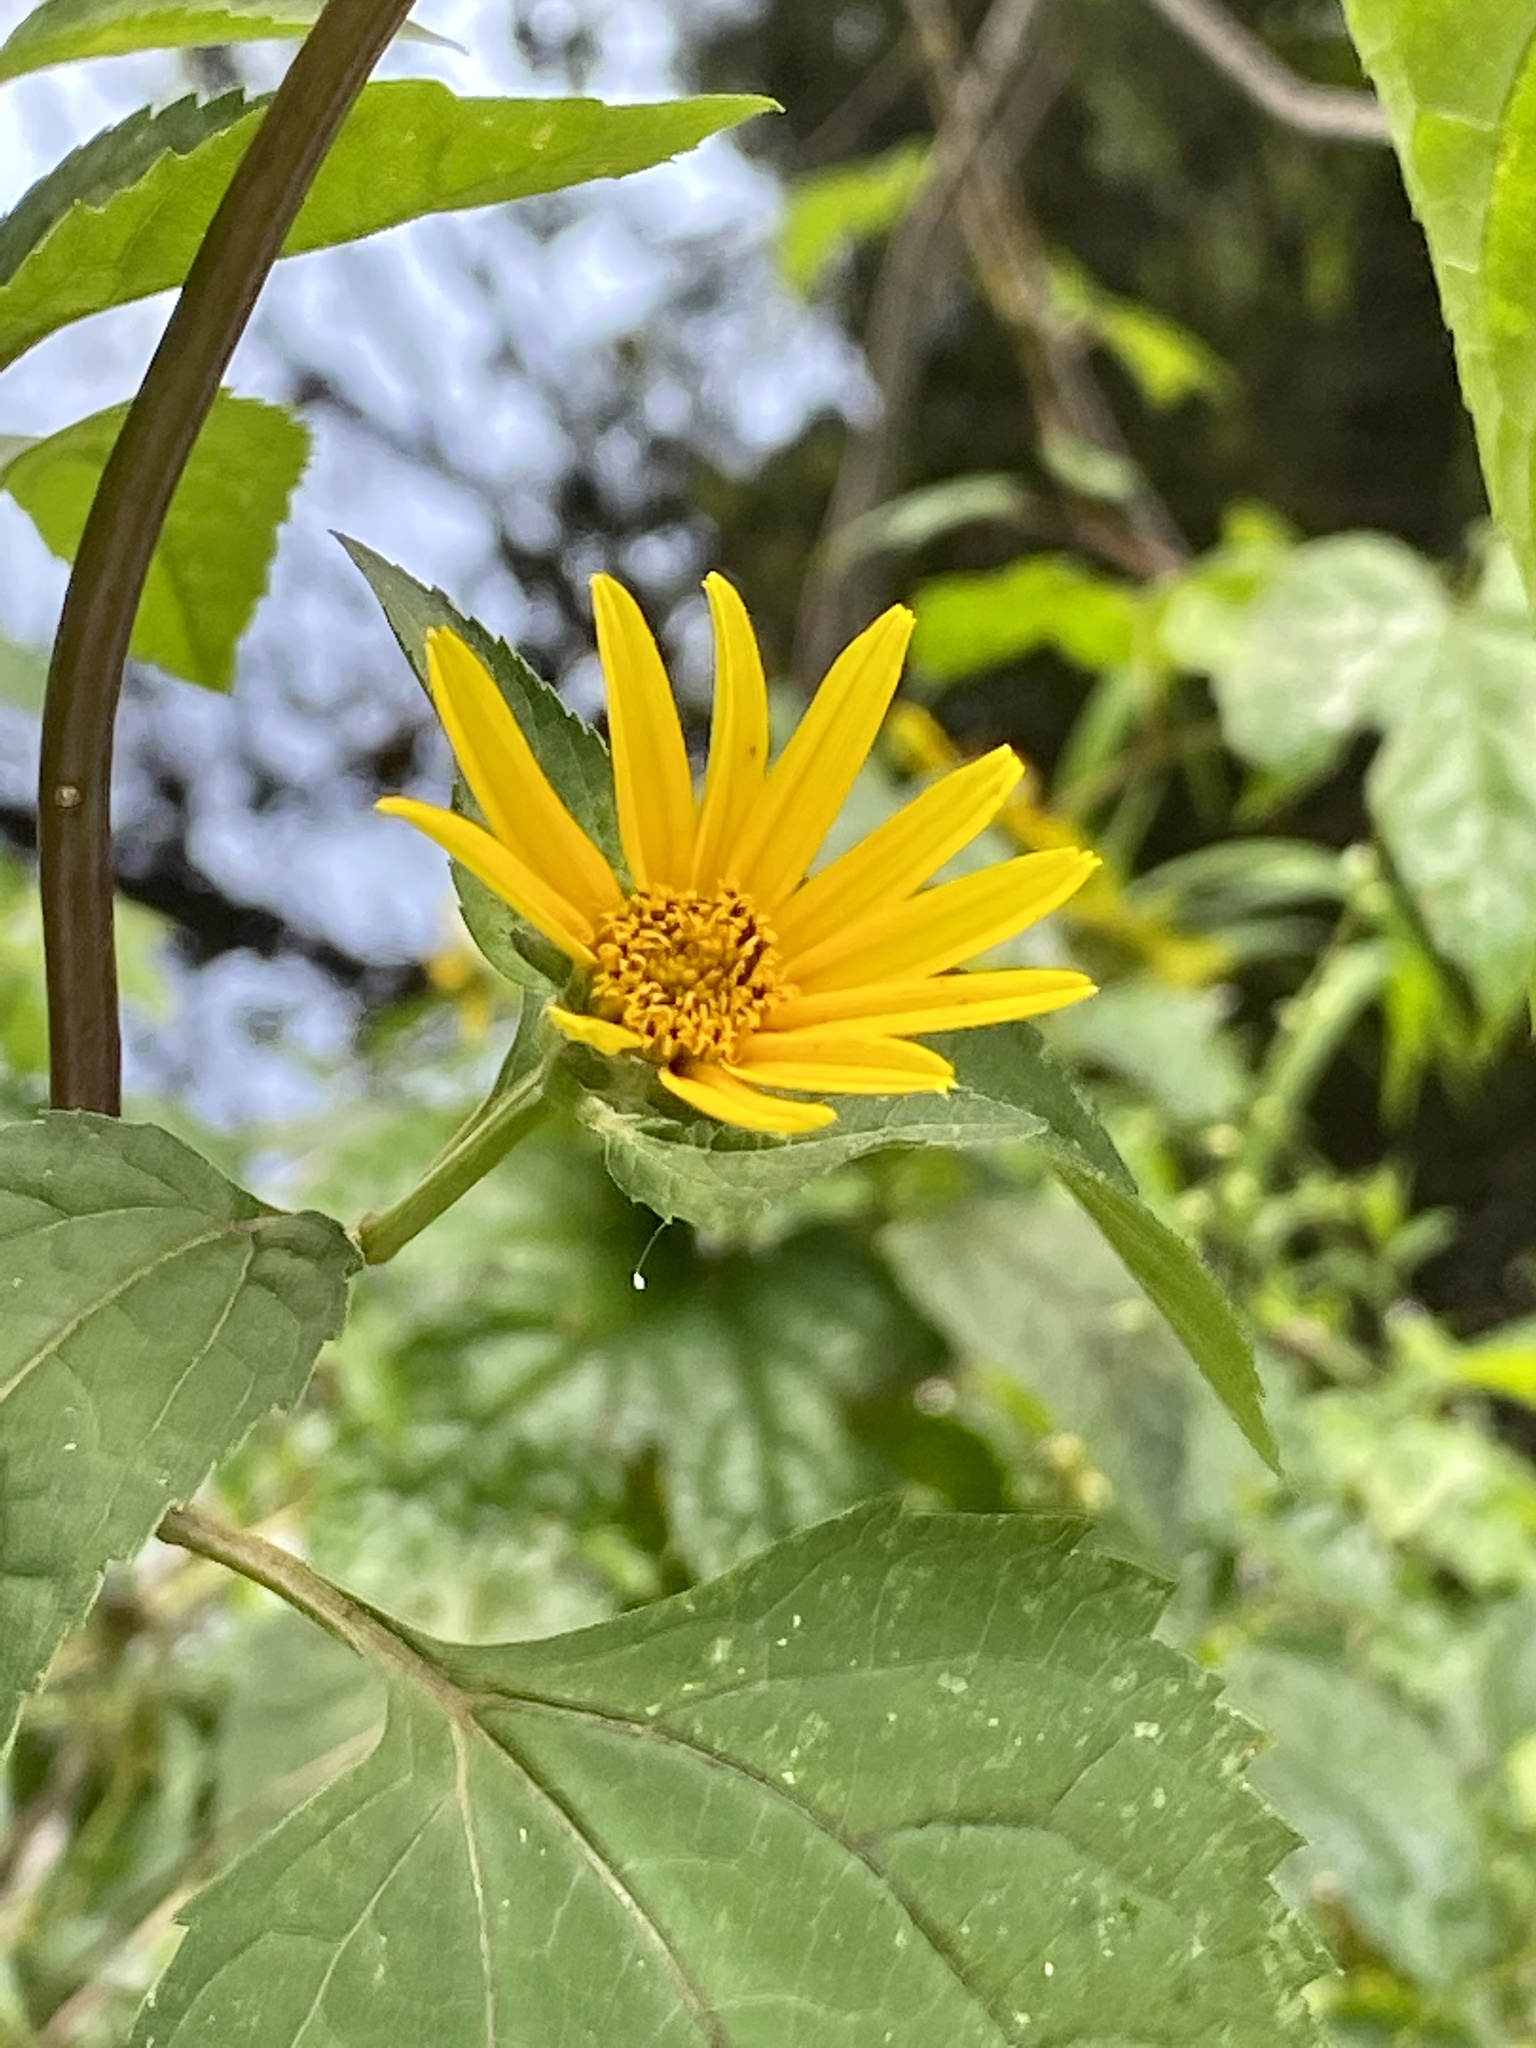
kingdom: Plantae
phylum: Tracheophyta
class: Magnoliopsida
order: Asterales
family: Asteraceae
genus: Heliopsis
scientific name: Heliopsis helianthoides
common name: False sunflower
